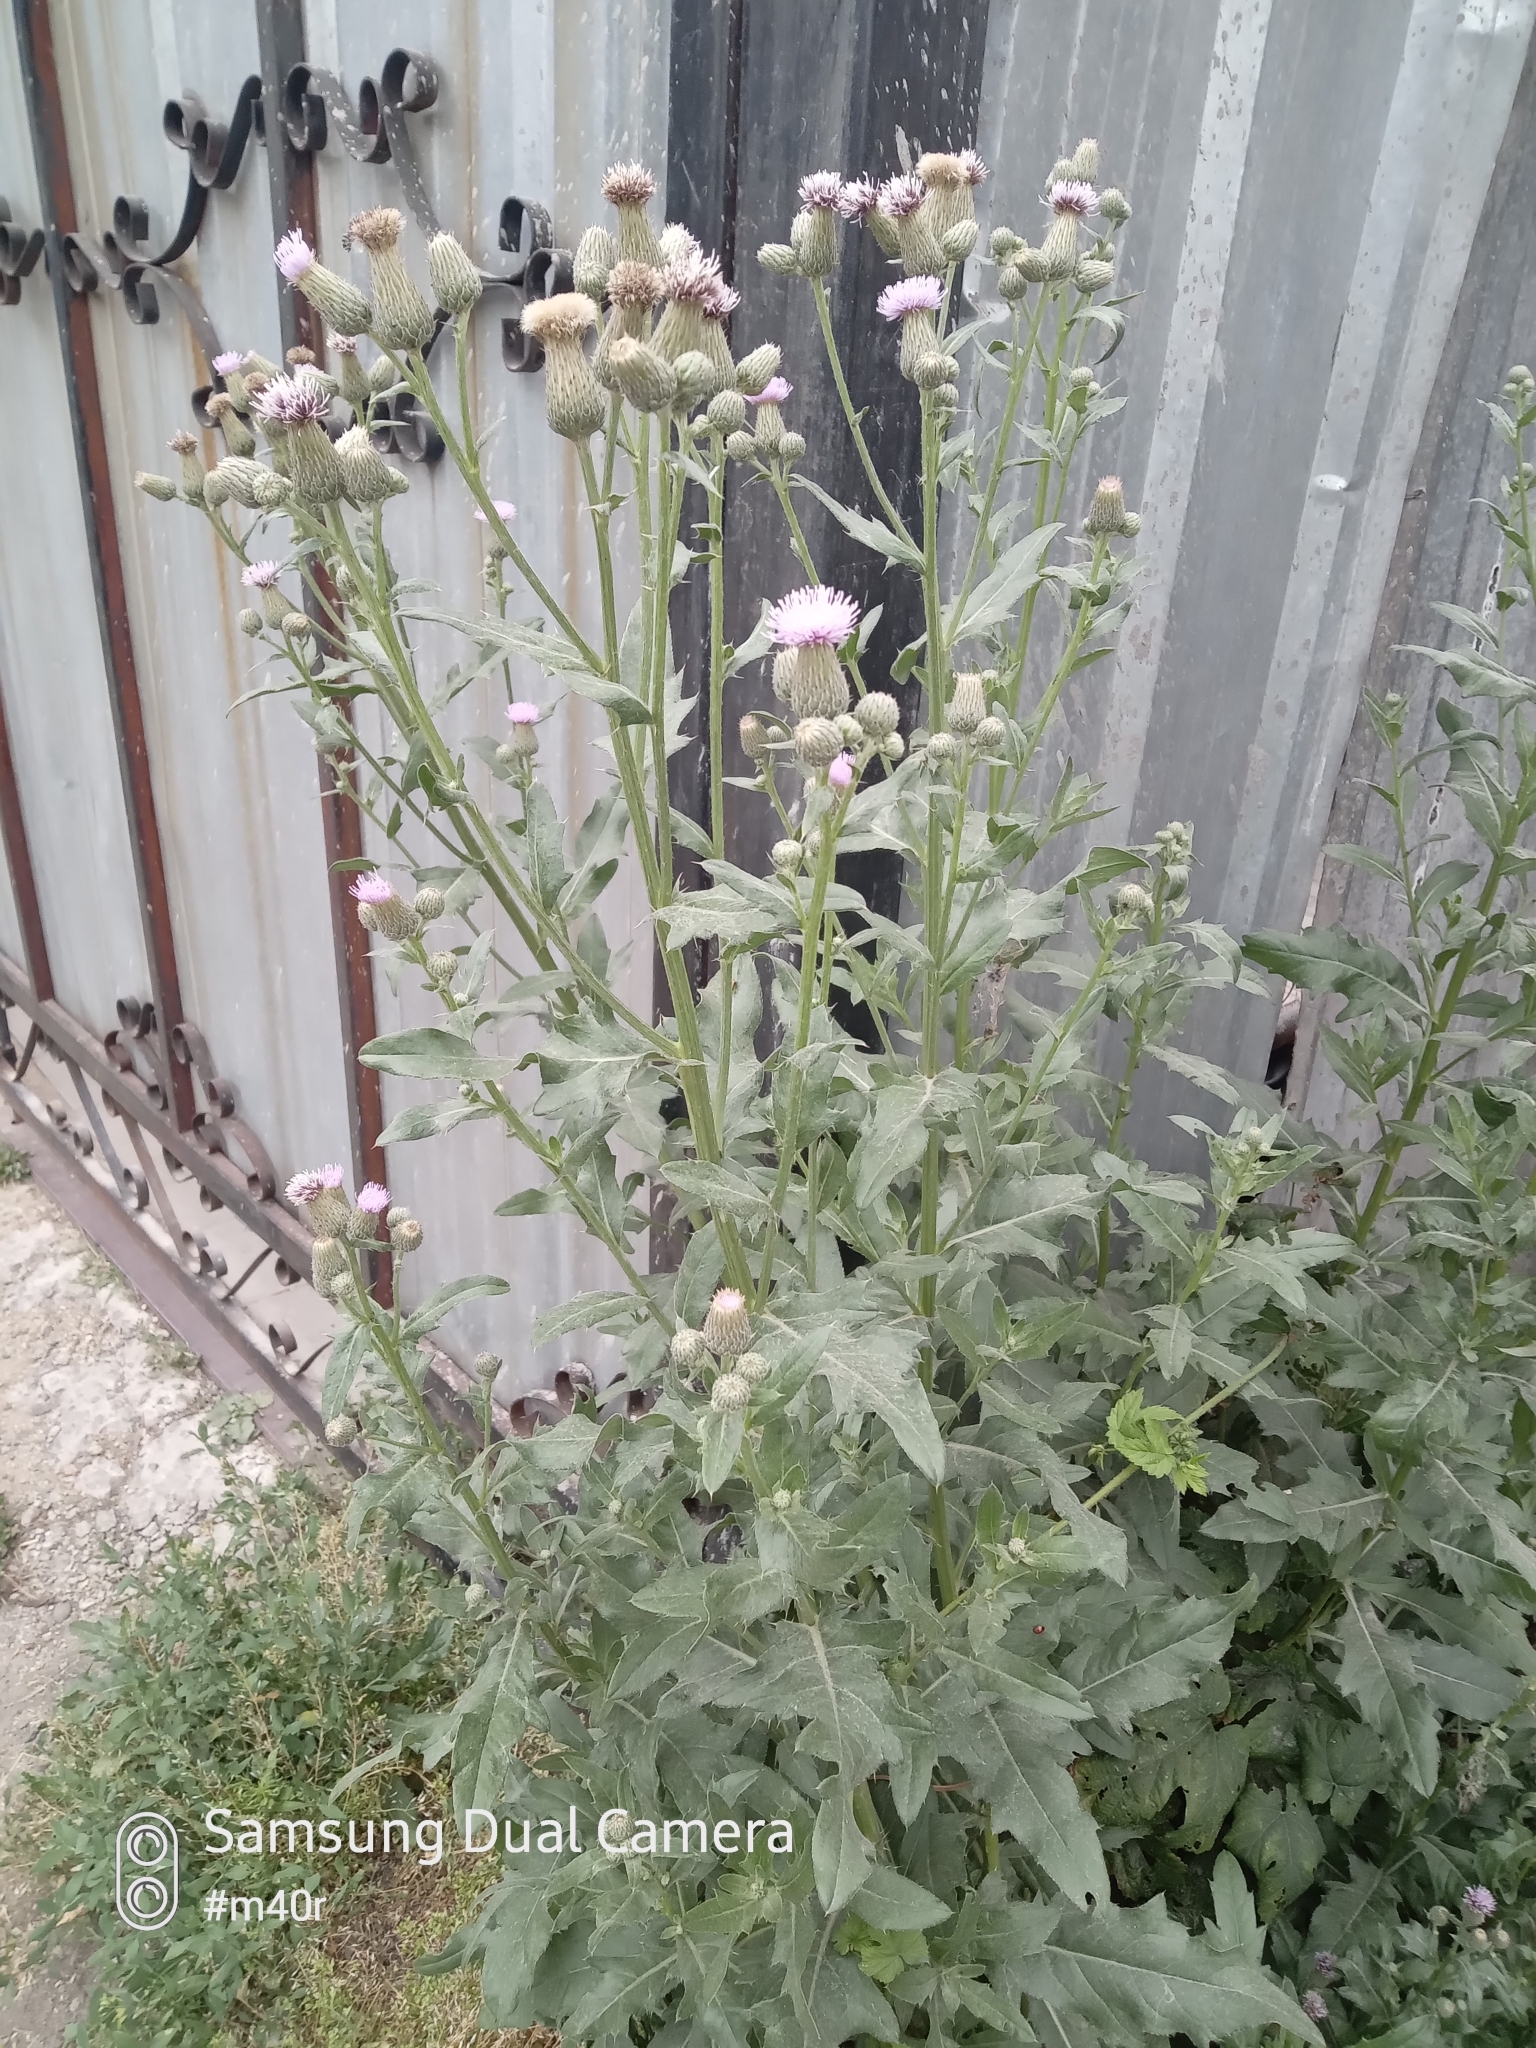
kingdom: Plantae
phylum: Tracheophyta
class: Magnoliopsida
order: Asterales
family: Asteraceae
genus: Cirsium
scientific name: Cirsium arvense
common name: Creeping thistle
